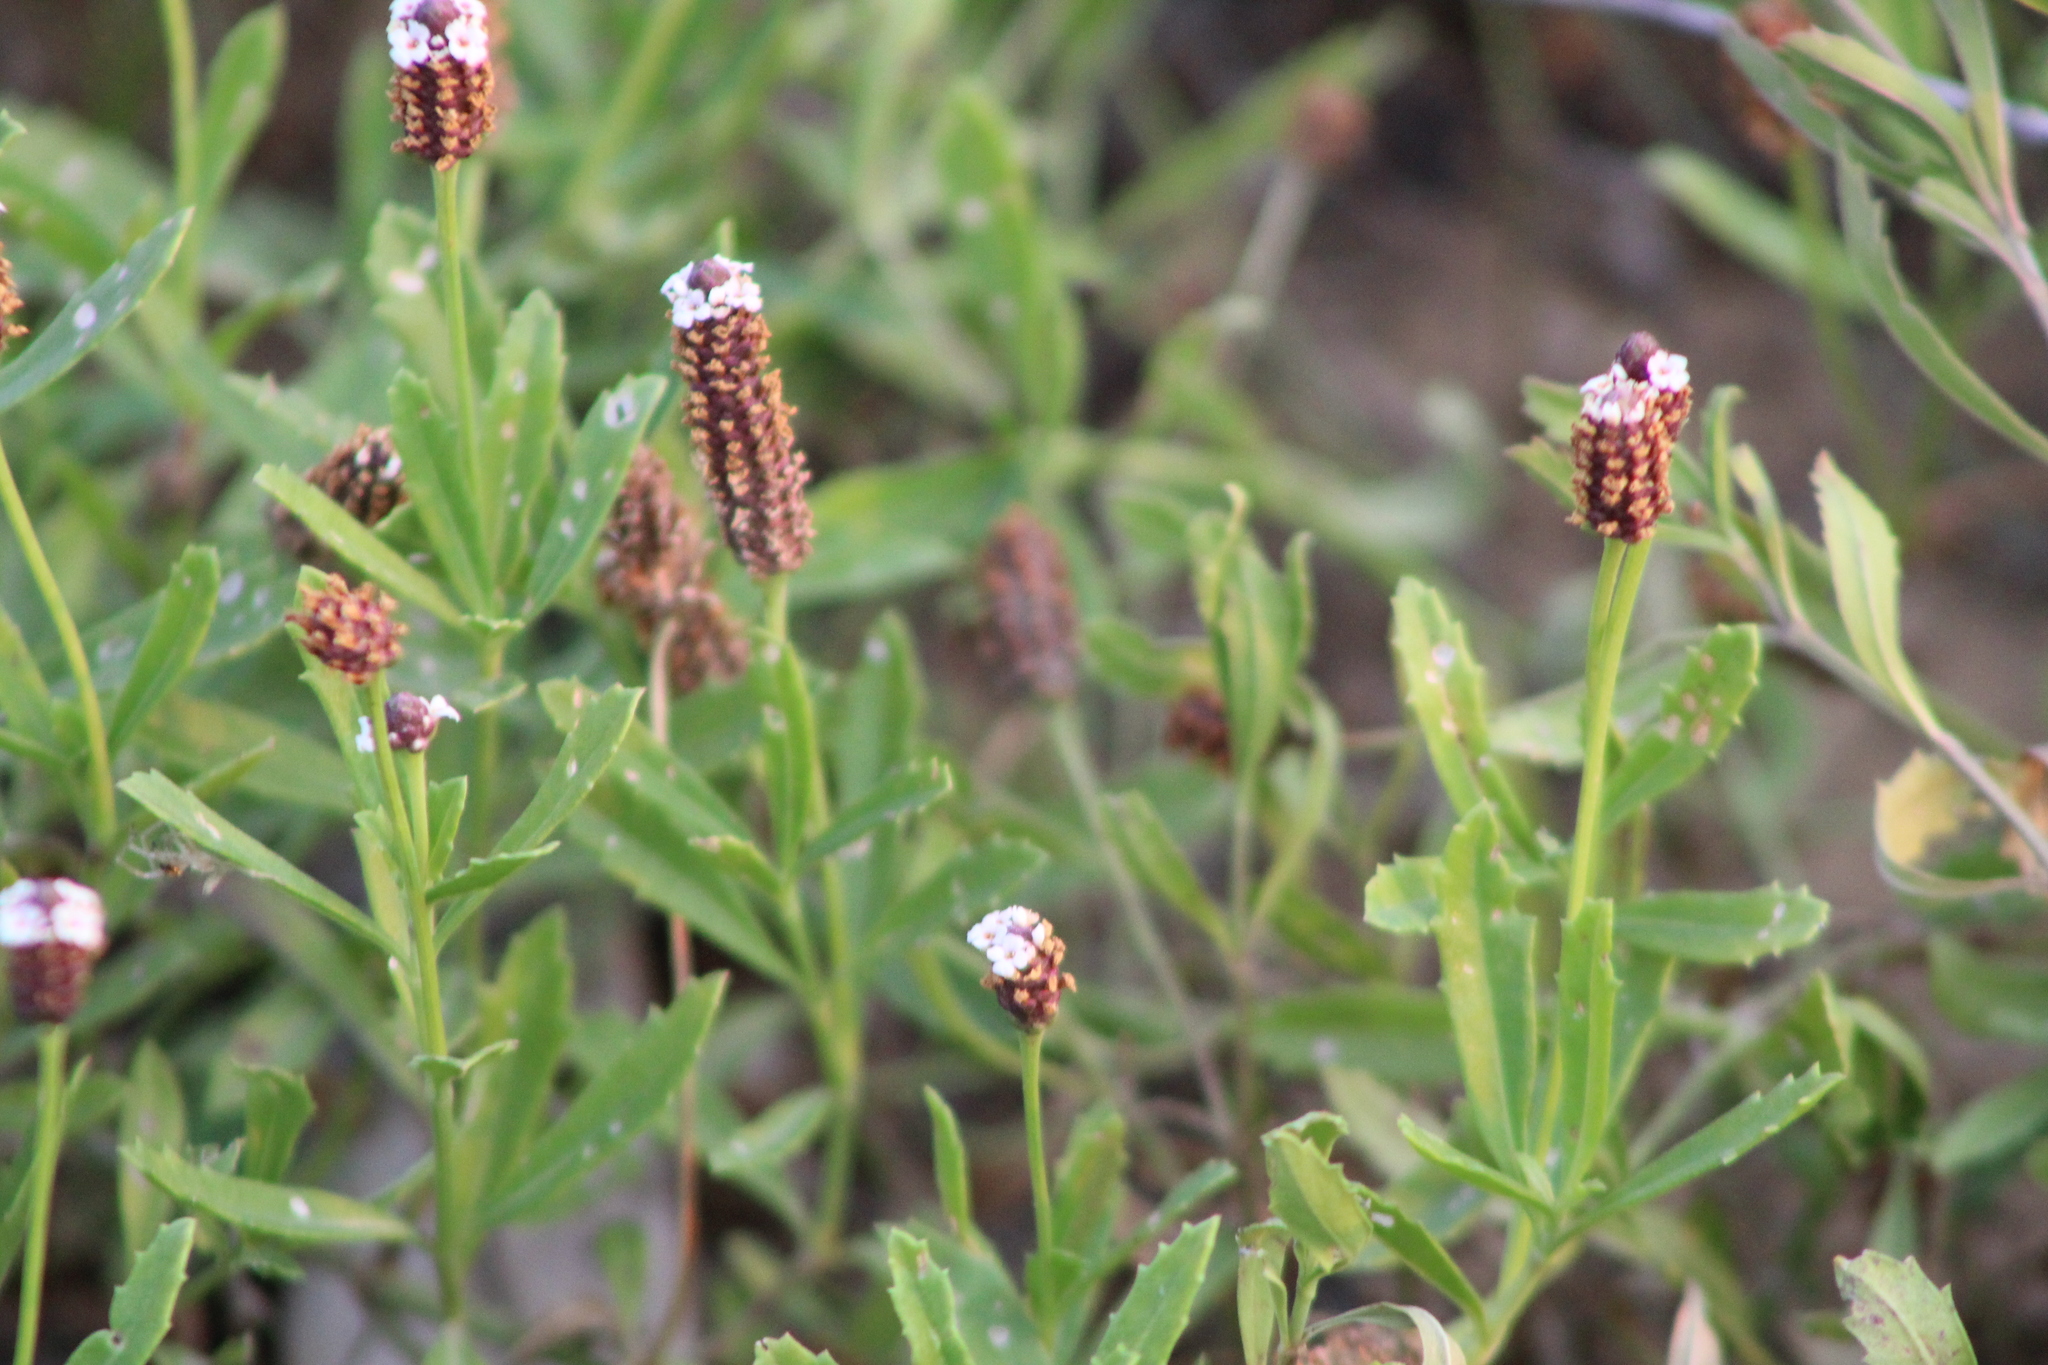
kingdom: Plantae
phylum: Tracheophyta
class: Magnoliopsida
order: Lamiales
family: Verbenaceae
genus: Phyla
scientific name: Phyla nodiflora
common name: Frogfruit
